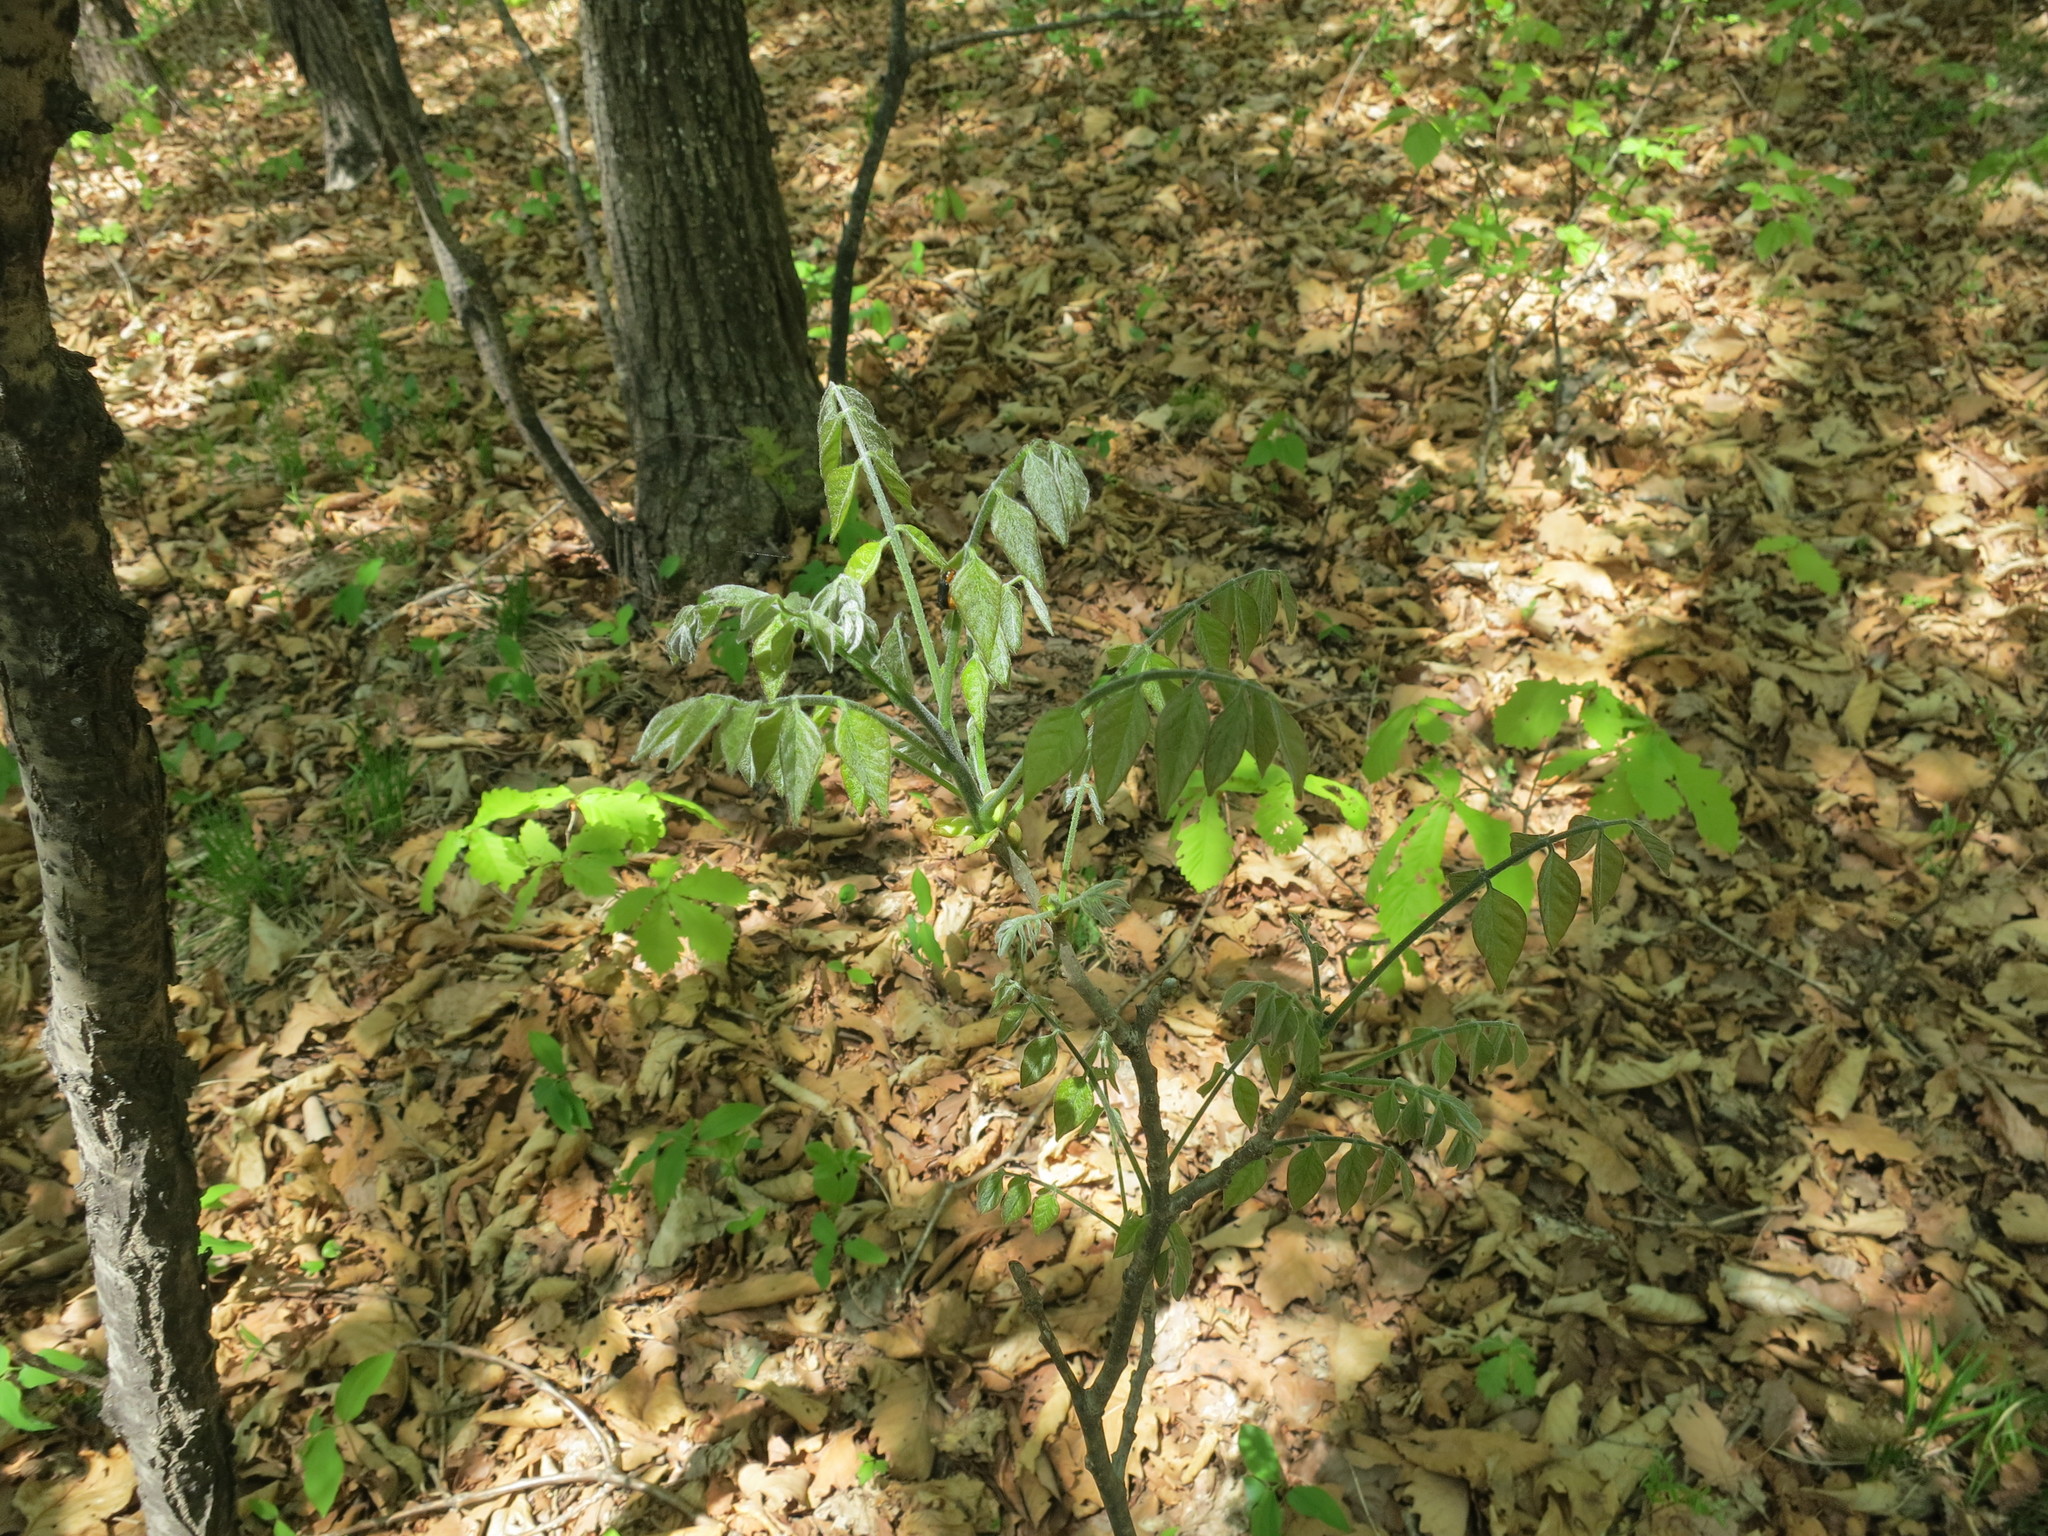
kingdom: Plantae
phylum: Tracheophyta
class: Magnoliopsida
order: Fabales
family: Fabaceae
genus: Maackia
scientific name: Maackia amurensis
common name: Amur maackia
